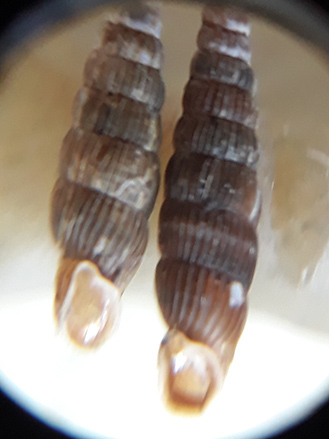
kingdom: Animalia
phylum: Mollusca
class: Gastropoda
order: Stylommatophora
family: Clausiliidae
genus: Ruthenica
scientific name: Ruthenica filograna
